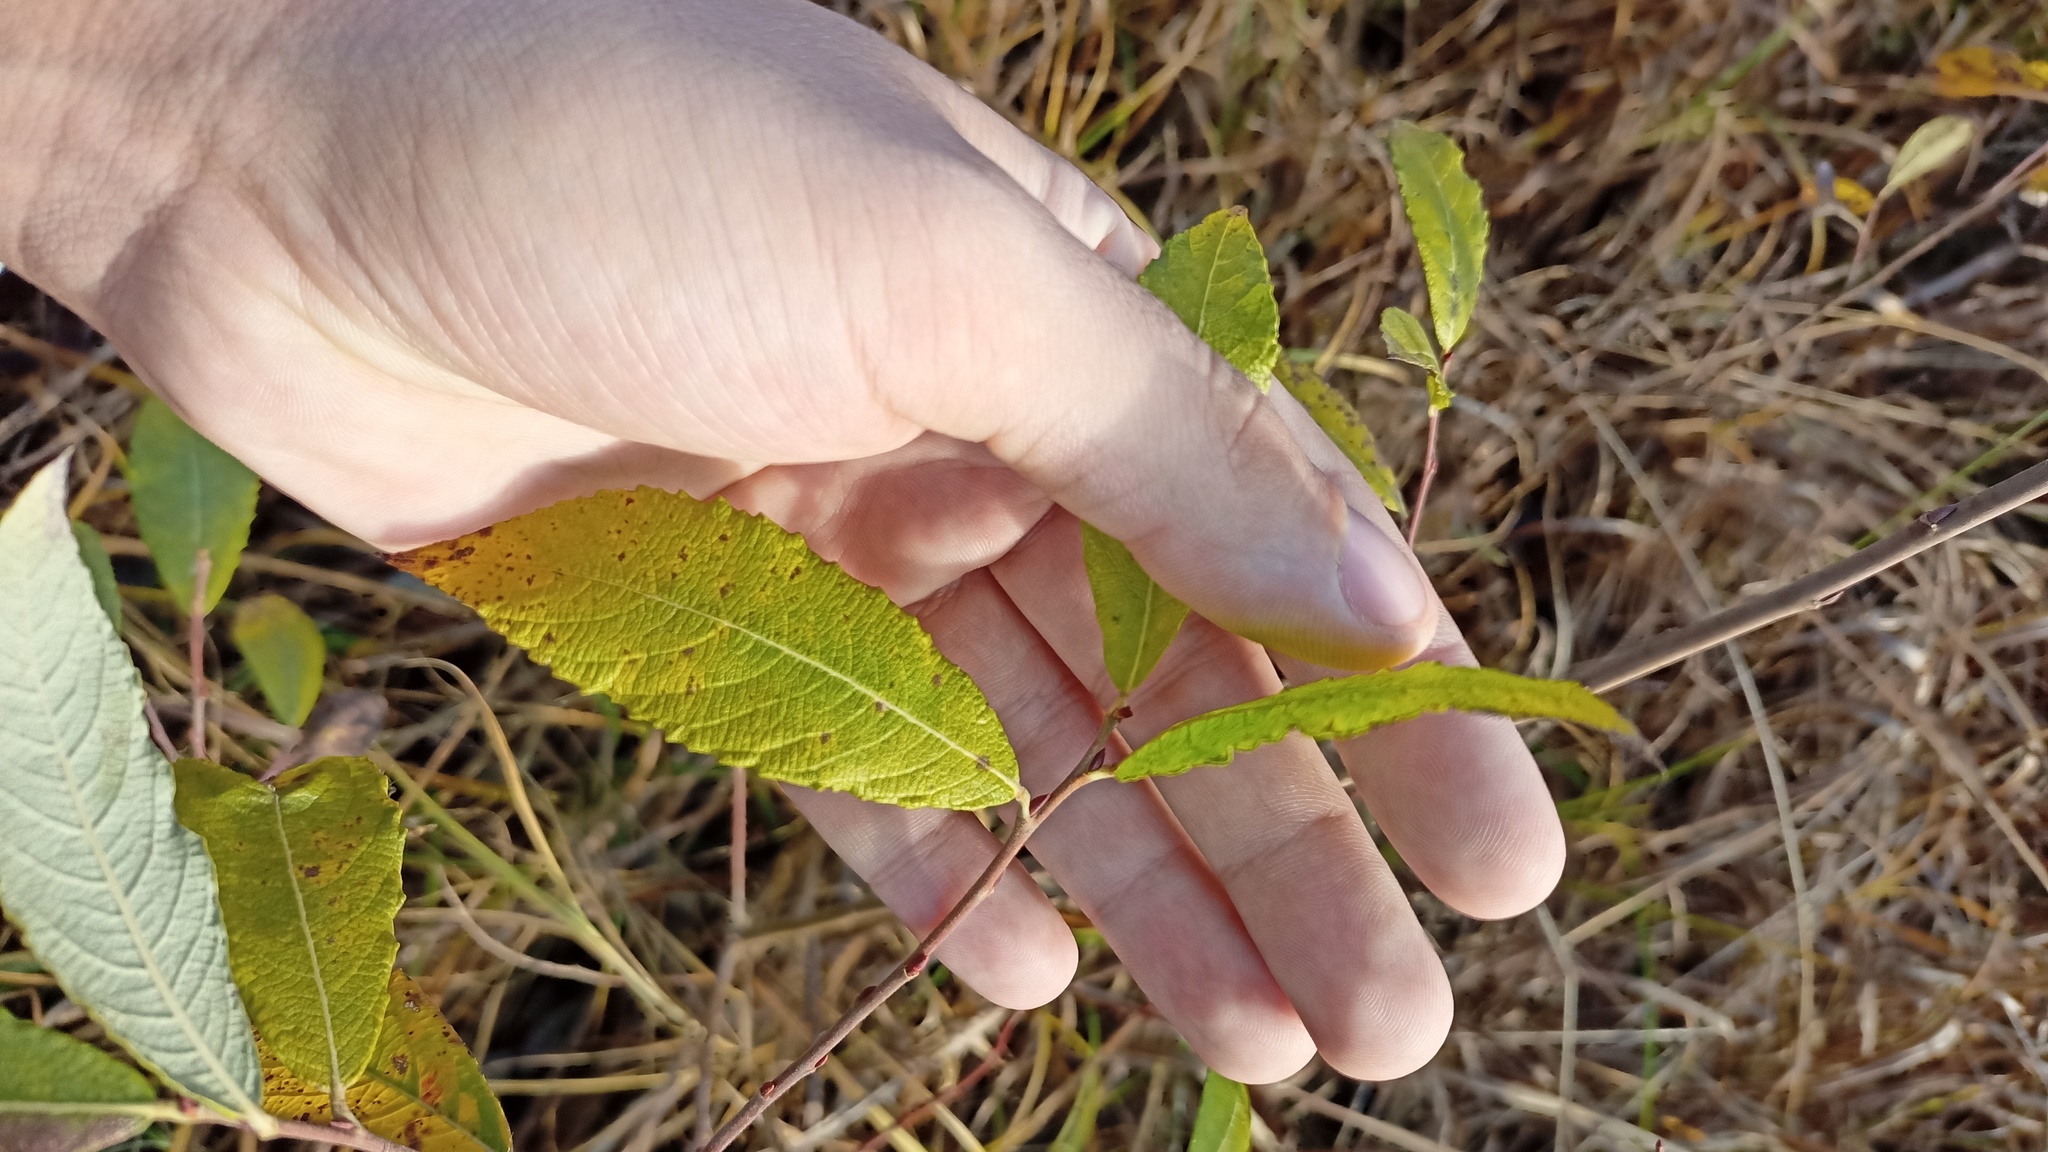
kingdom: Plantae
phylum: Tracheophyta
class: Magnoliopsida
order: Malpighiales
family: Salicaceae
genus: Salix
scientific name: Salix cinerea
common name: Common sallow
